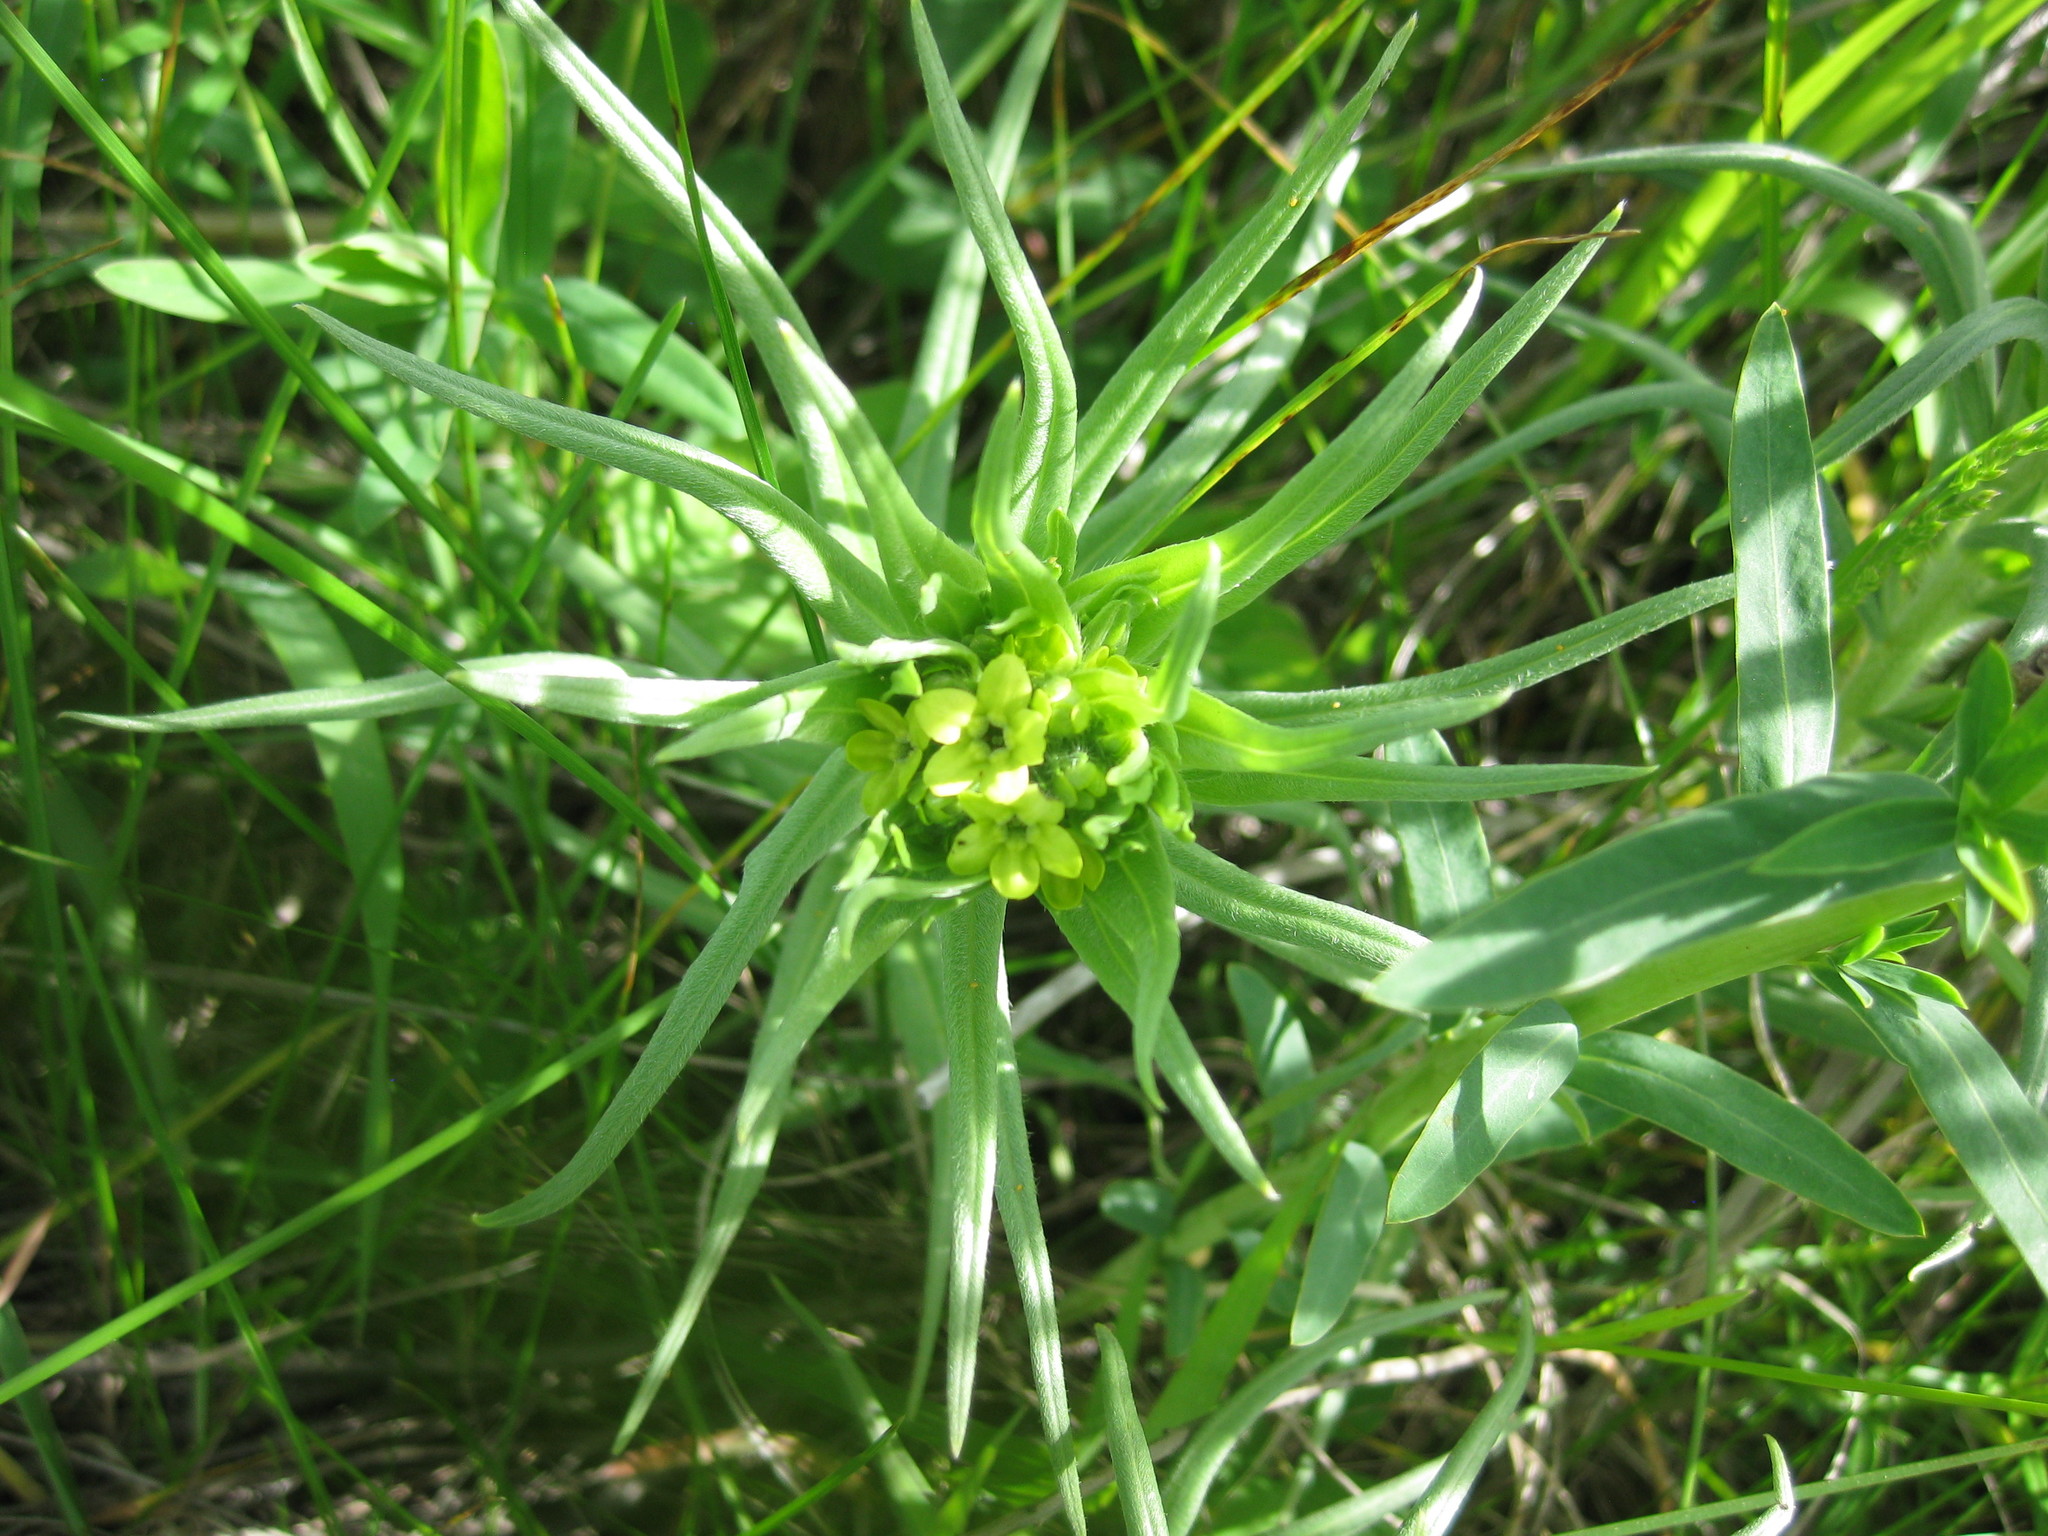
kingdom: Plantae
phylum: Tracheophyta
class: Magnoliopsida
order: Boraginales
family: Boraginaceae
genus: Lithospermum
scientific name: Lithospermum ruderale
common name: Western gromwell
